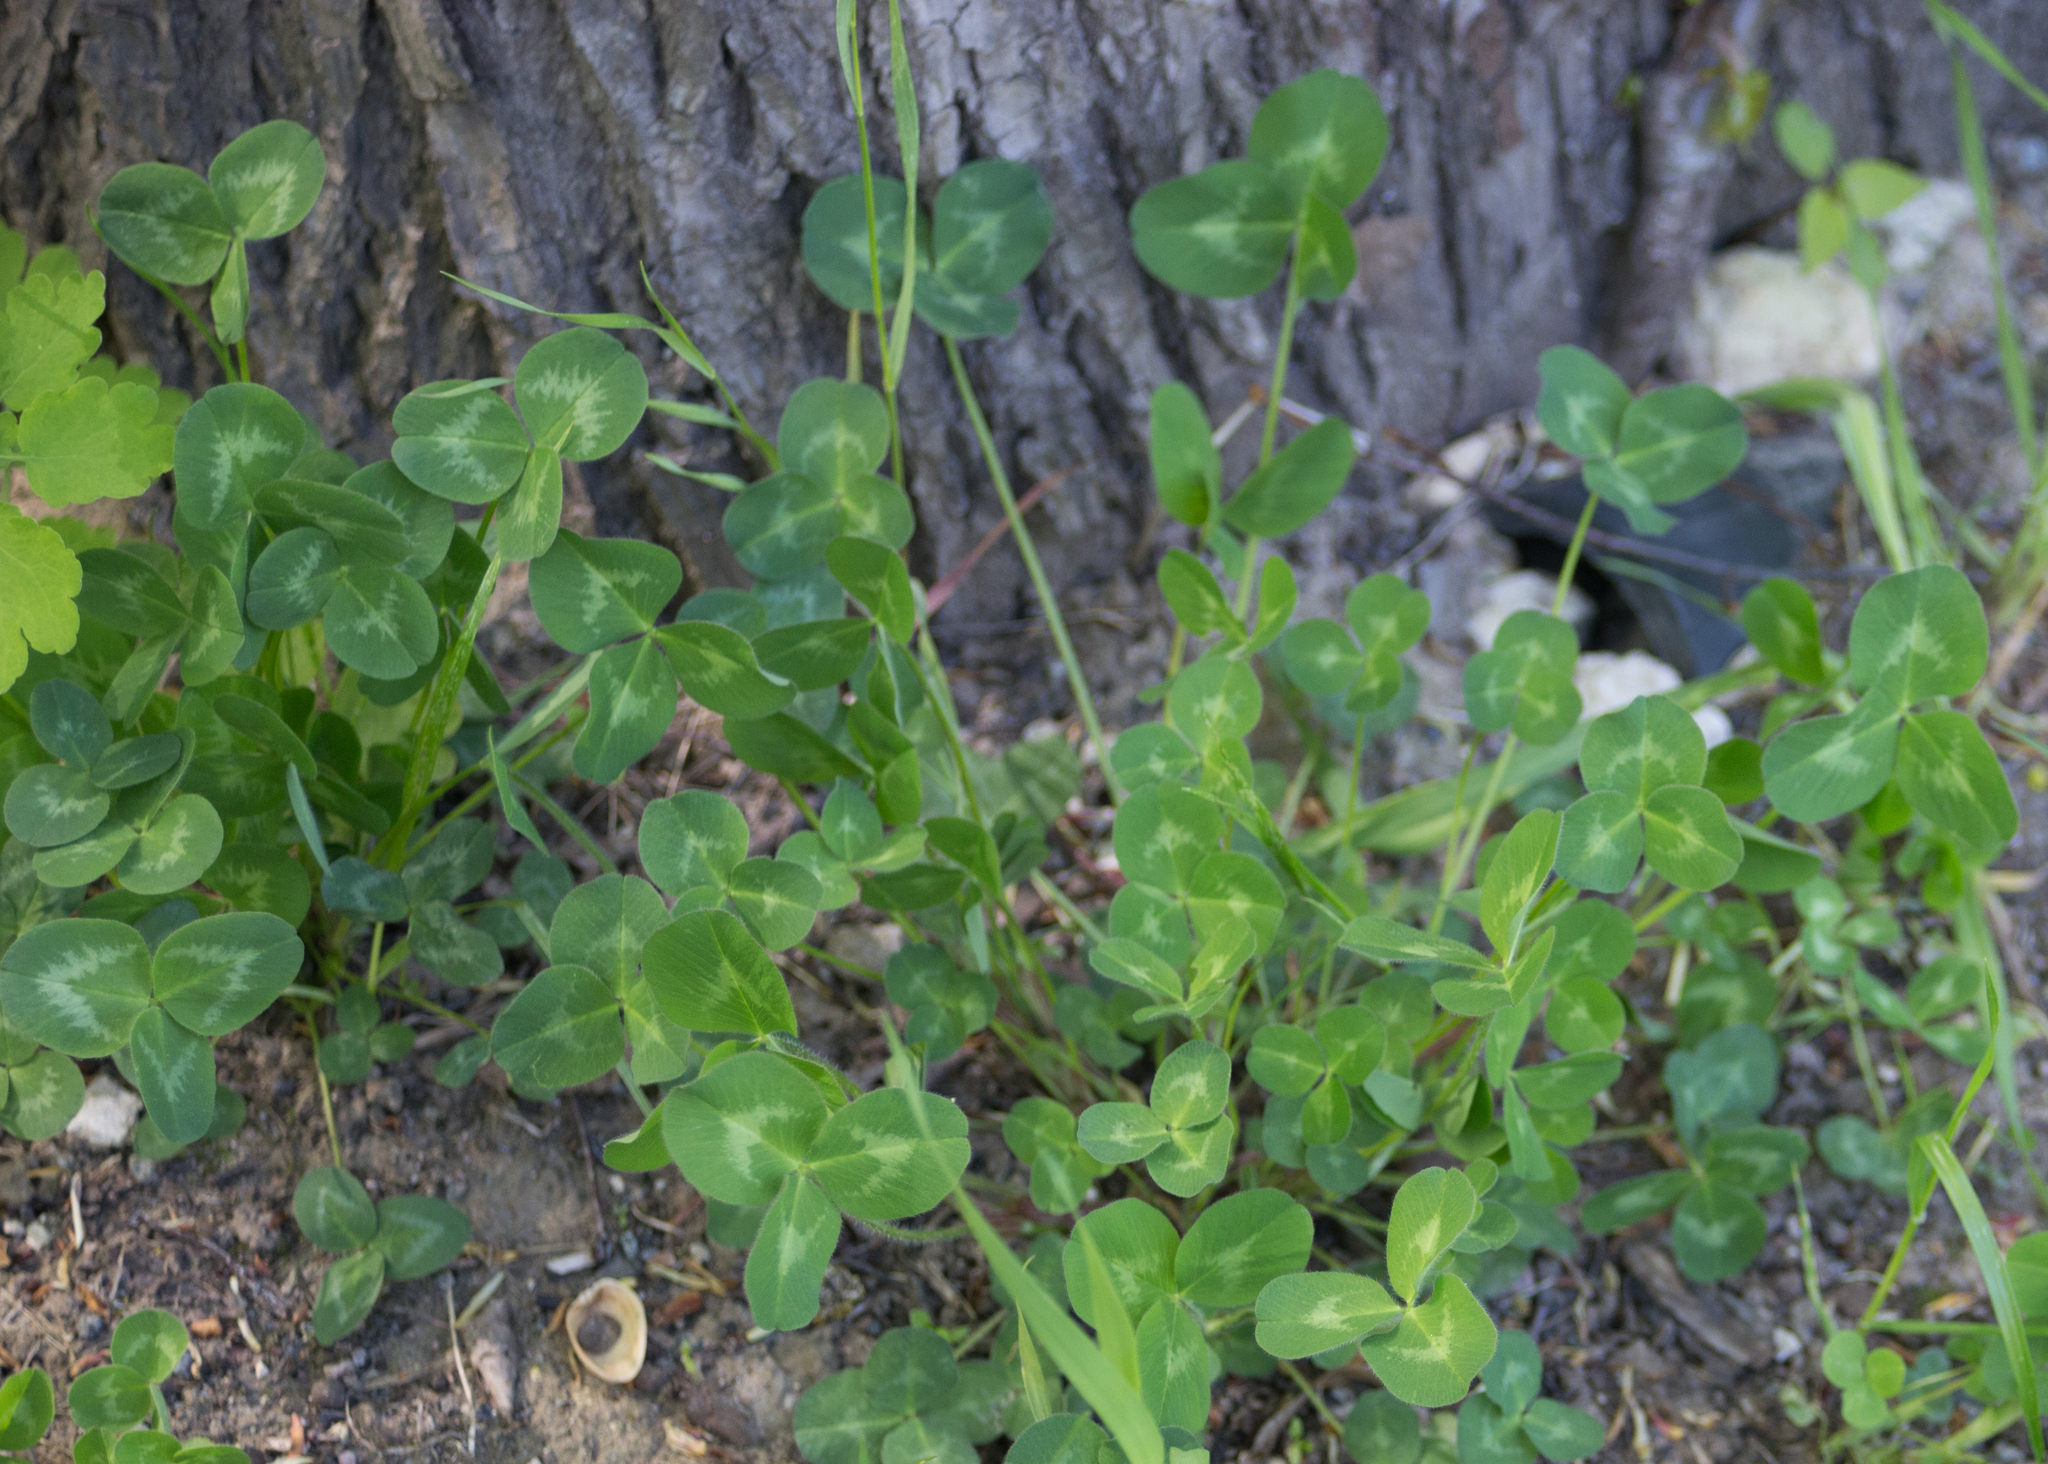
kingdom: Plantae
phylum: Tracheophyta
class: Magnoliopsida
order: Fabales
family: Fabaceae
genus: Trifolium
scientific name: Trifolium pratense
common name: Red clover
